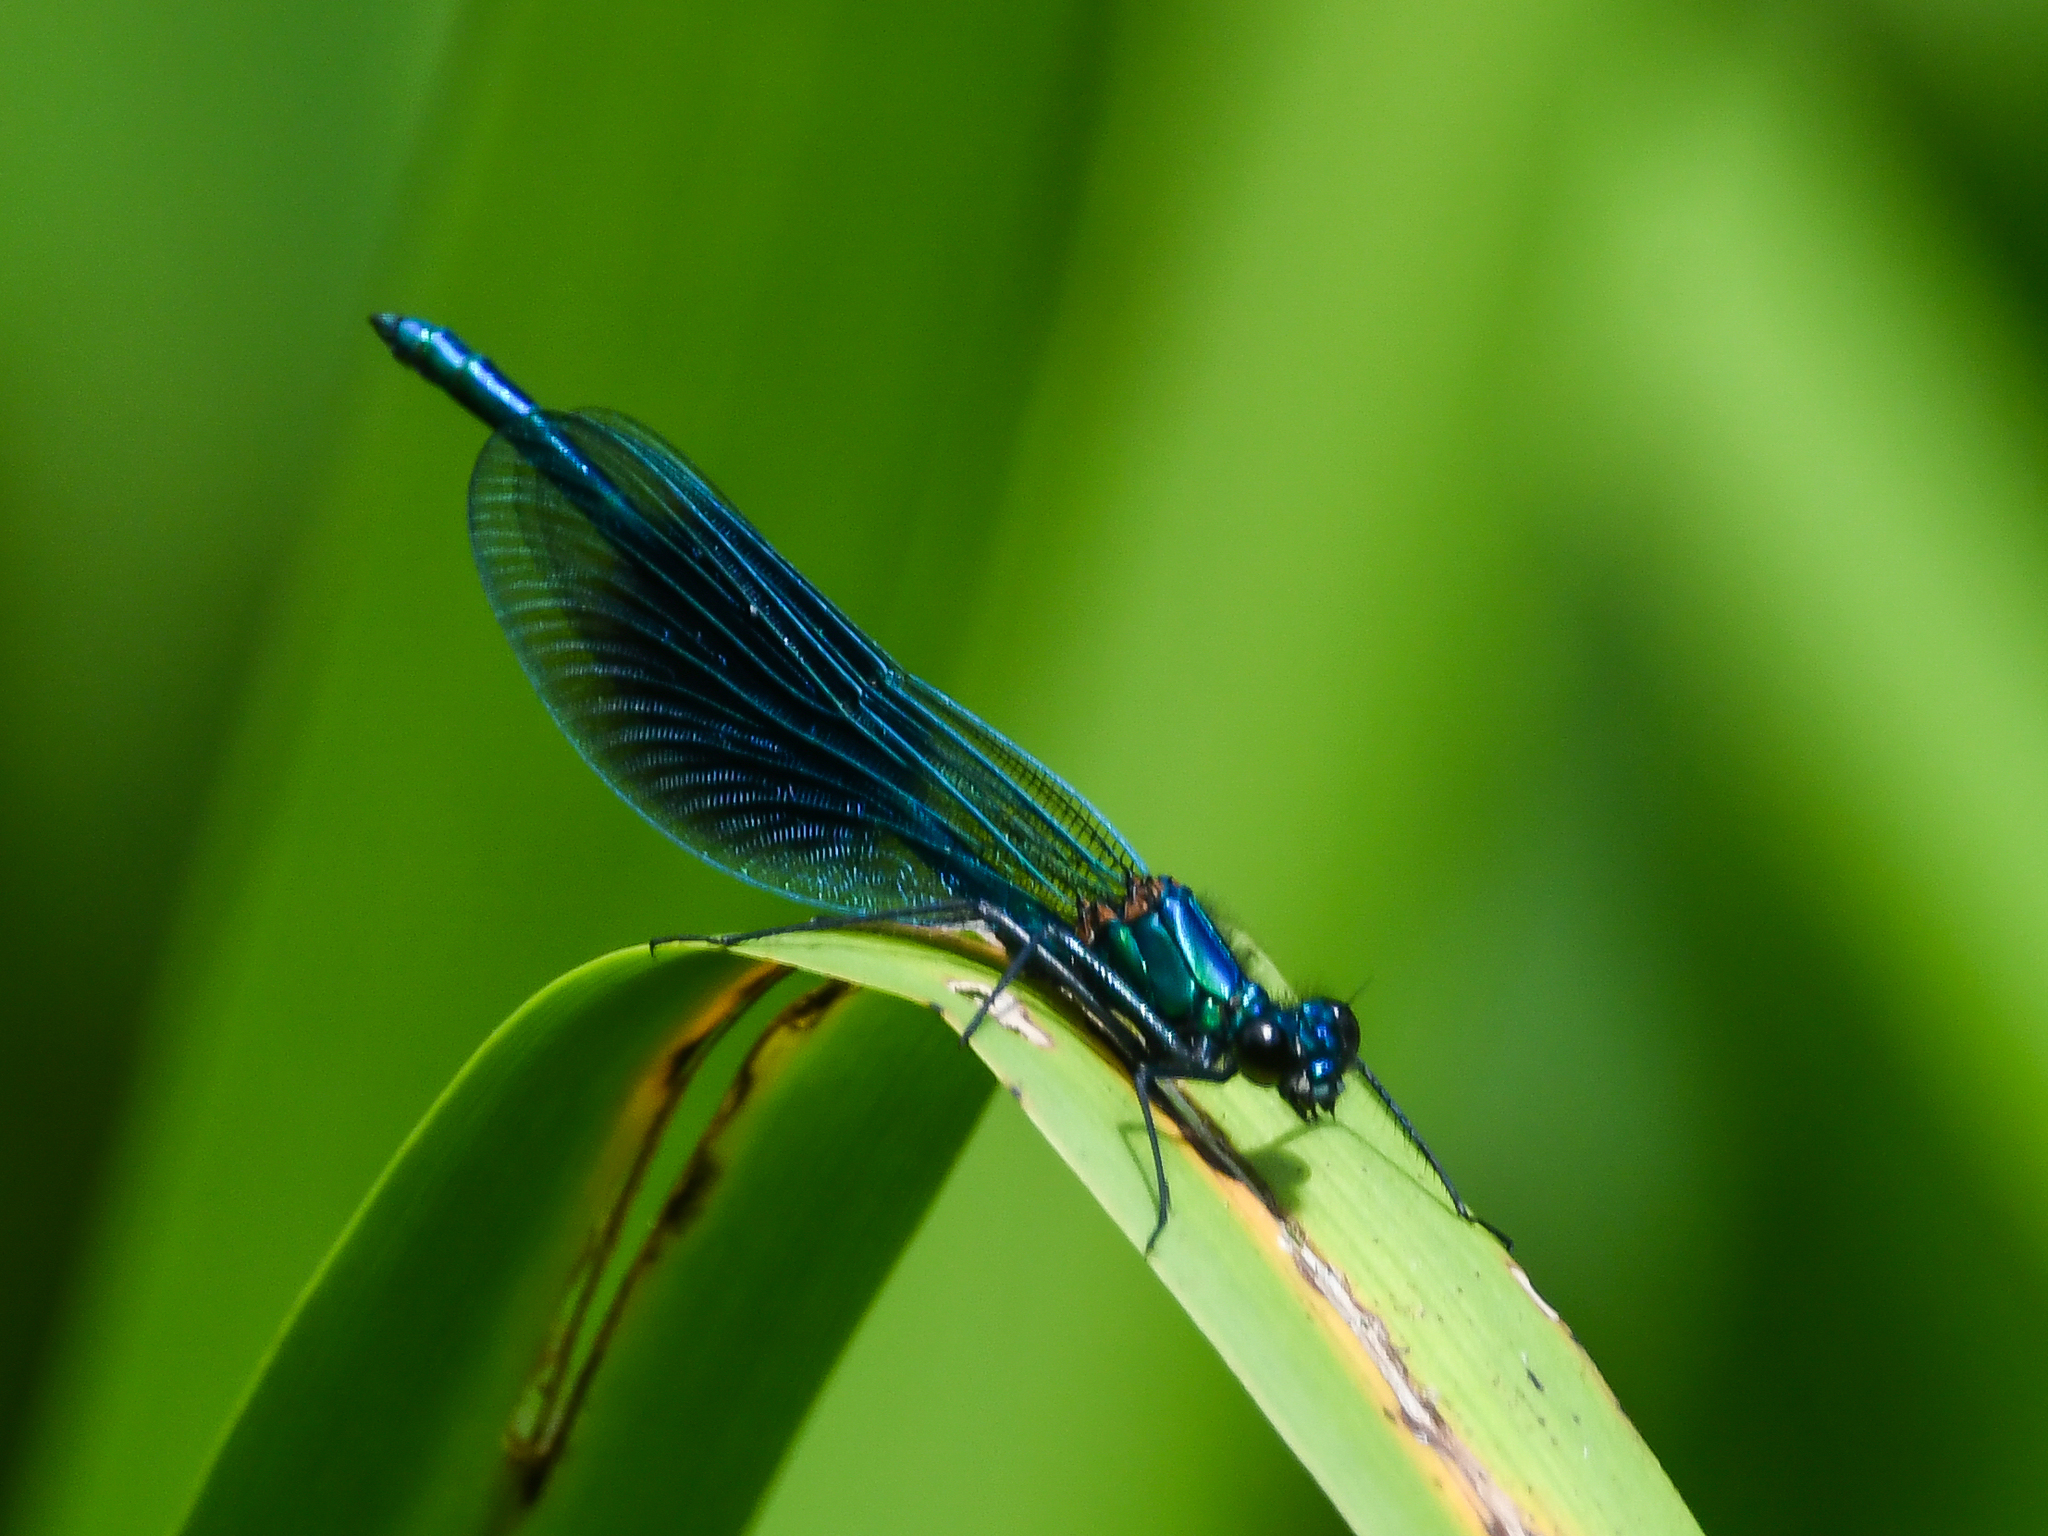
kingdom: Animalia
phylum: Arthropoda
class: Insecta
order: Odonata
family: Calopterygidae
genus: Calopteryx
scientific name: Calopteryx splendens
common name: Banded demoiselle
